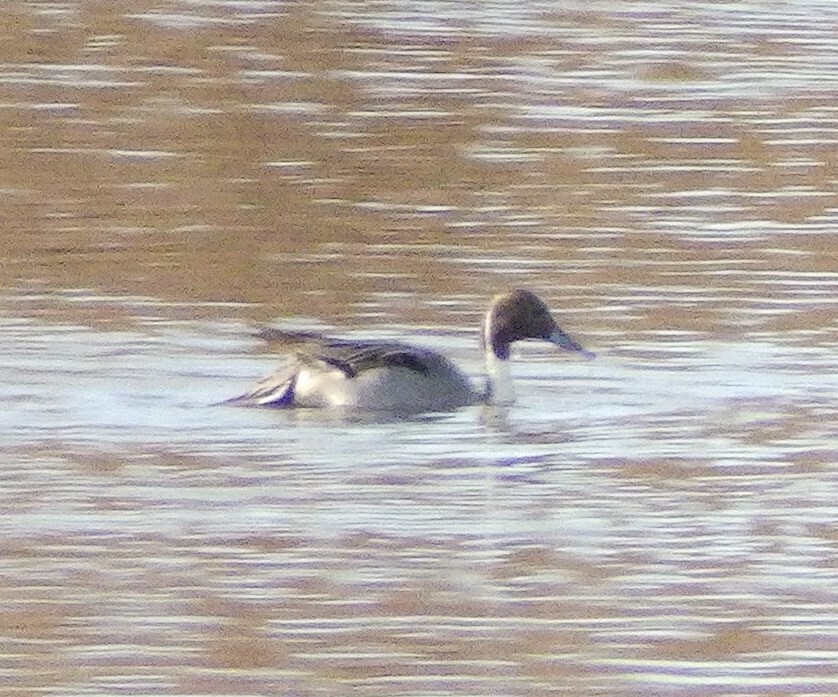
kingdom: Animalia
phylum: Chordata
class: Aves
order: Anseriformes
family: Anatidae
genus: Anas
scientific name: Anas acuta
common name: Northern pintail
